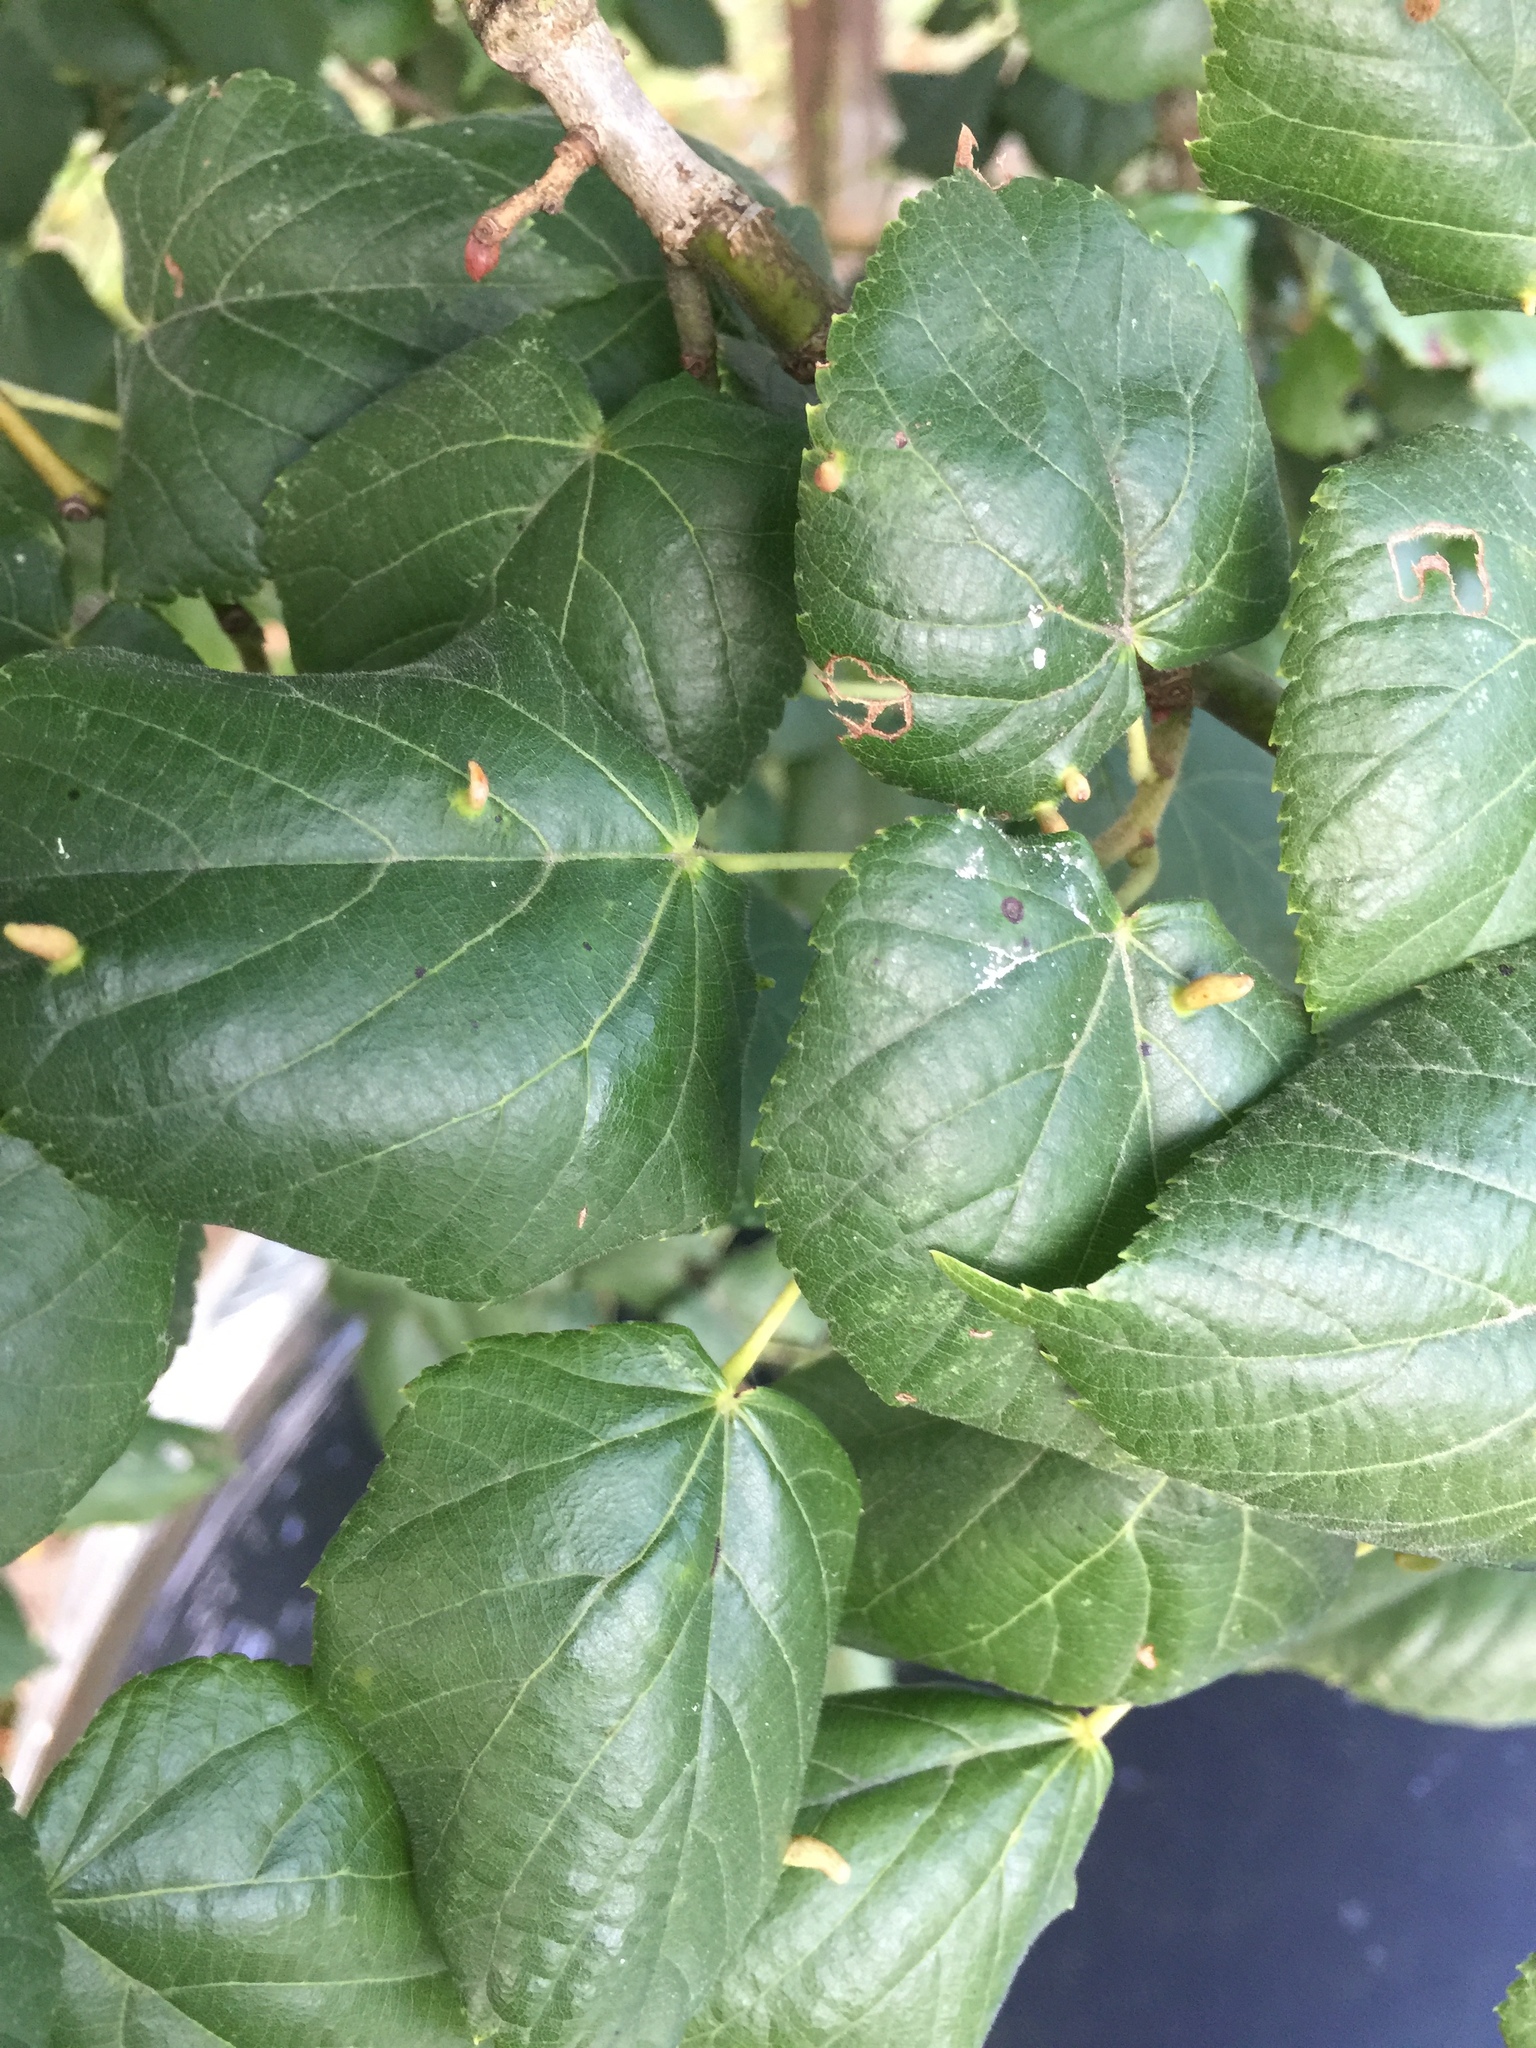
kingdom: Animalia
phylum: Arthropoda
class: Arachnida
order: Trombidiformes
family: Eriophyidae
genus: Eriophyes
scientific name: Eriophyes tiliae
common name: Red nail gall mite
